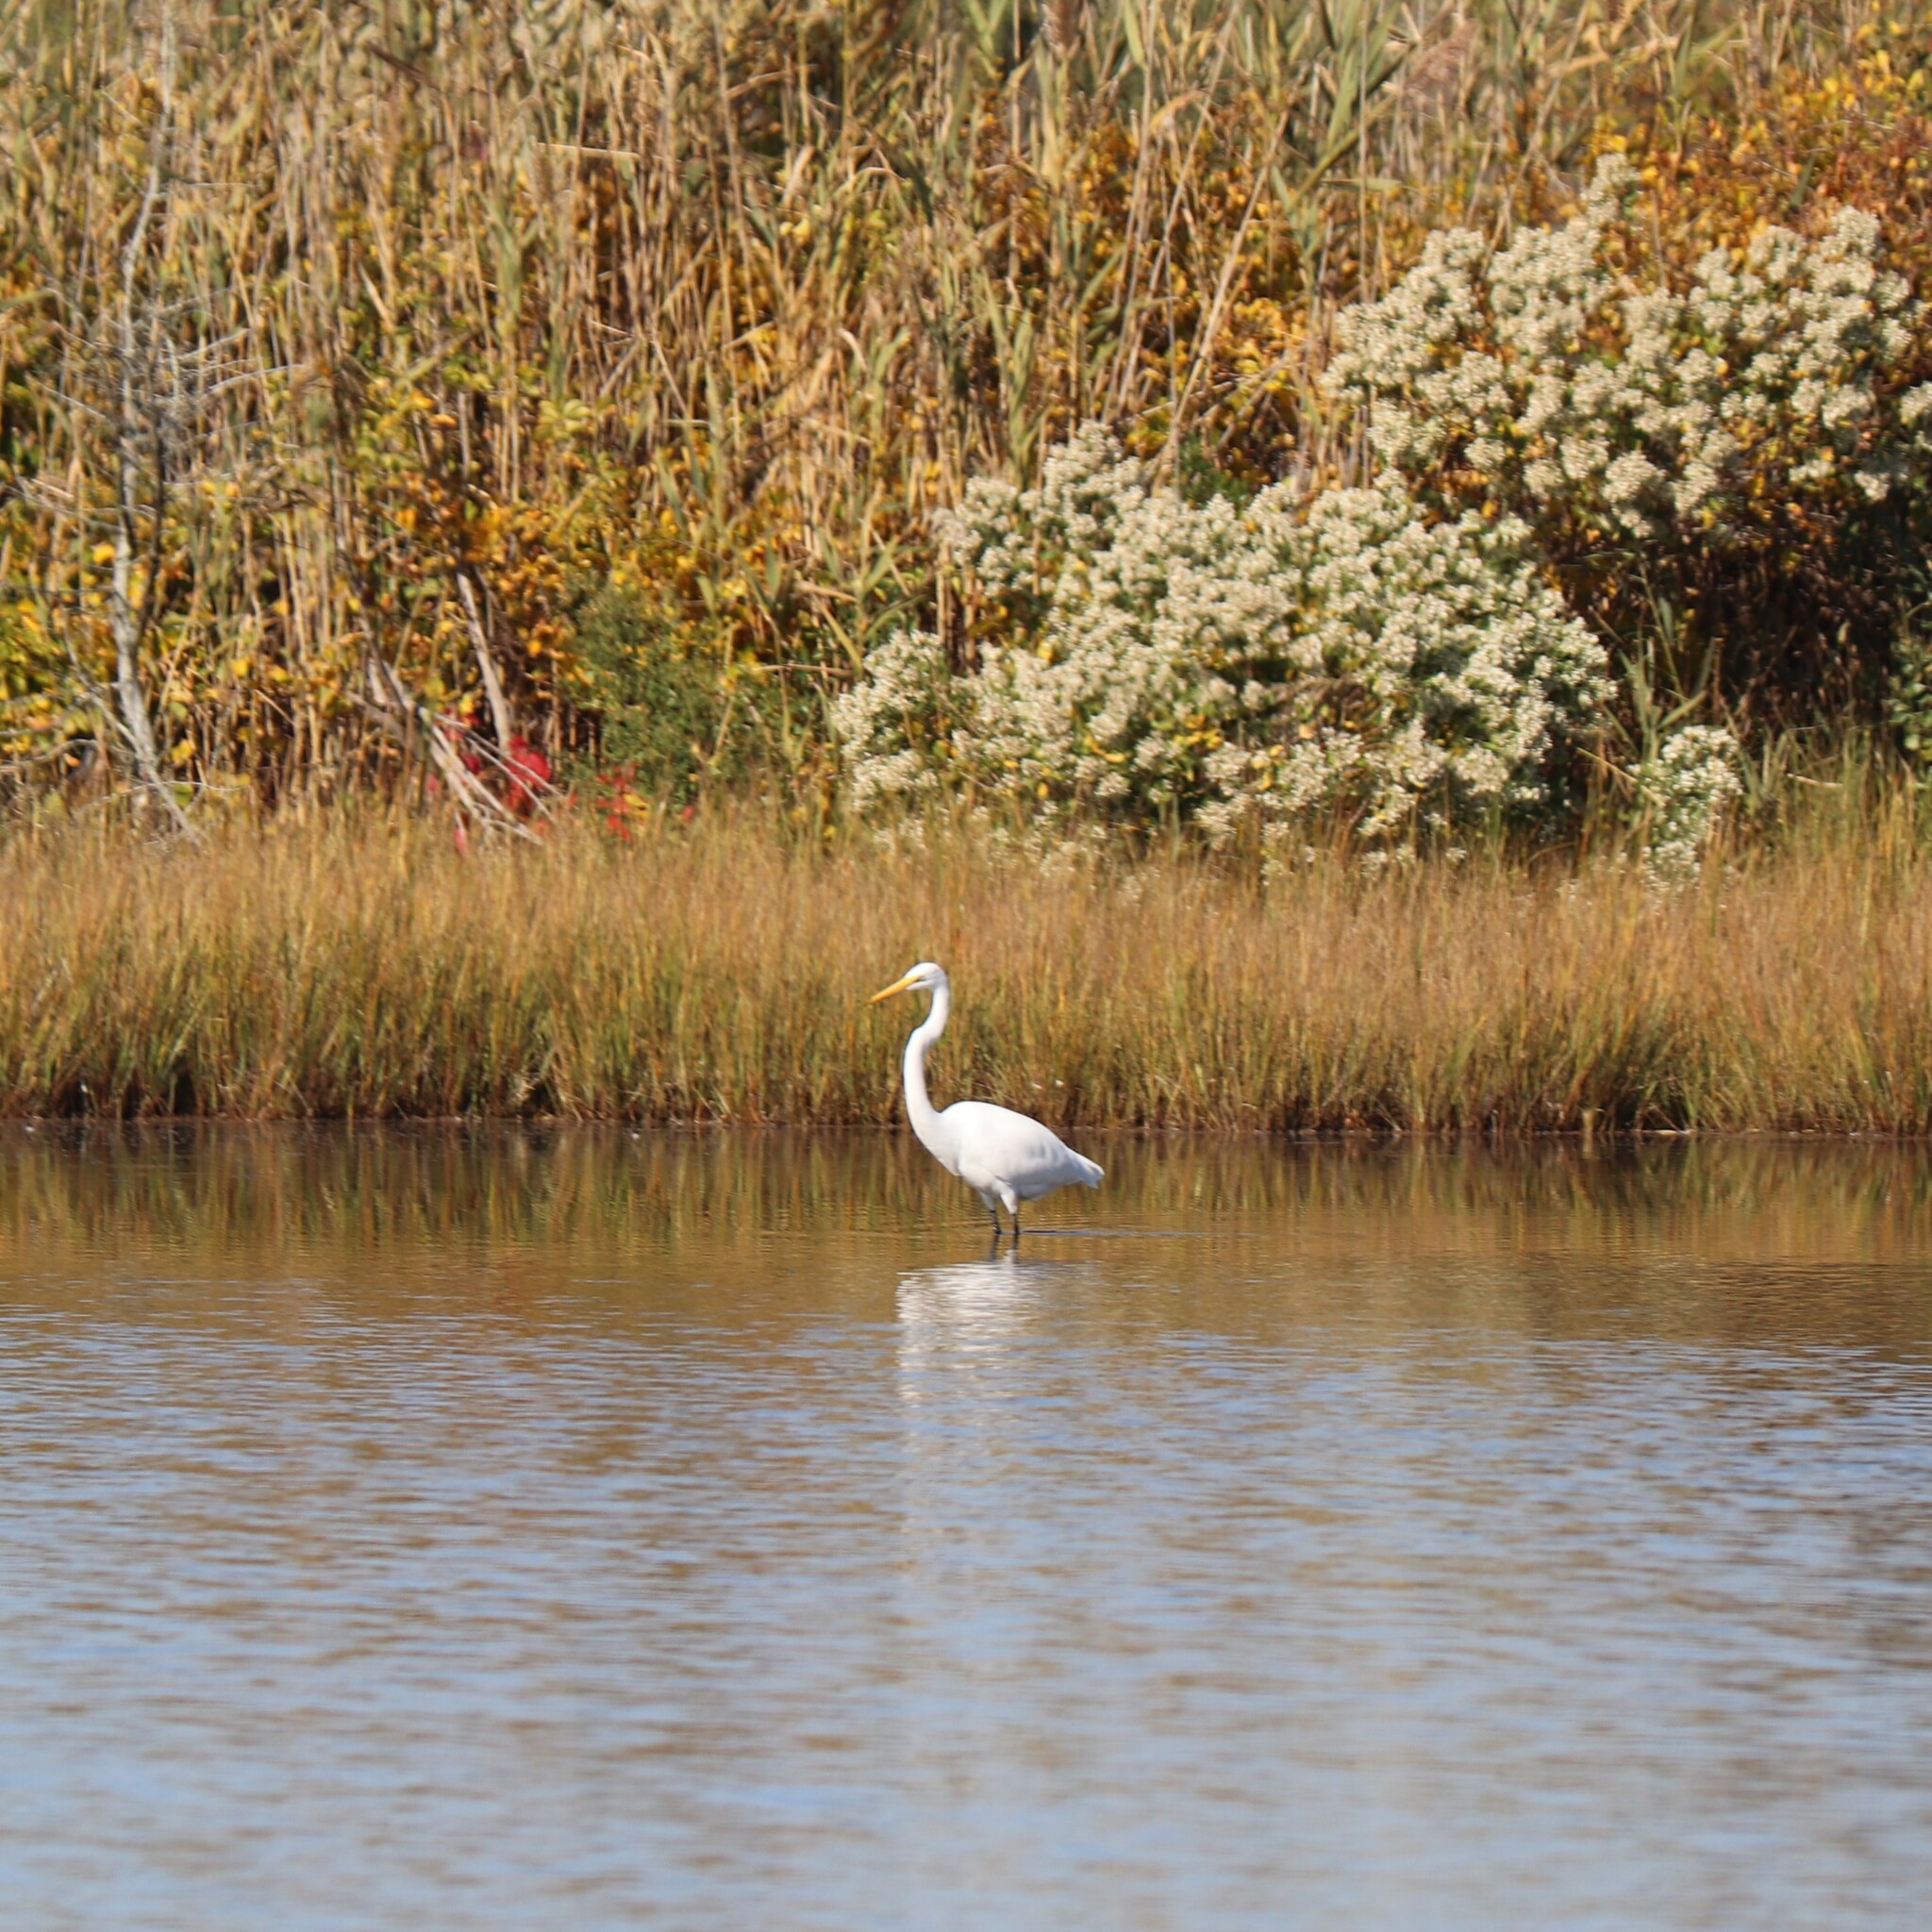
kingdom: Animalia
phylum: Chordata
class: Aves
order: Pelecaniformes
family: Ardeidae
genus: Ardea
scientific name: Ardea alba
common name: Great egret
